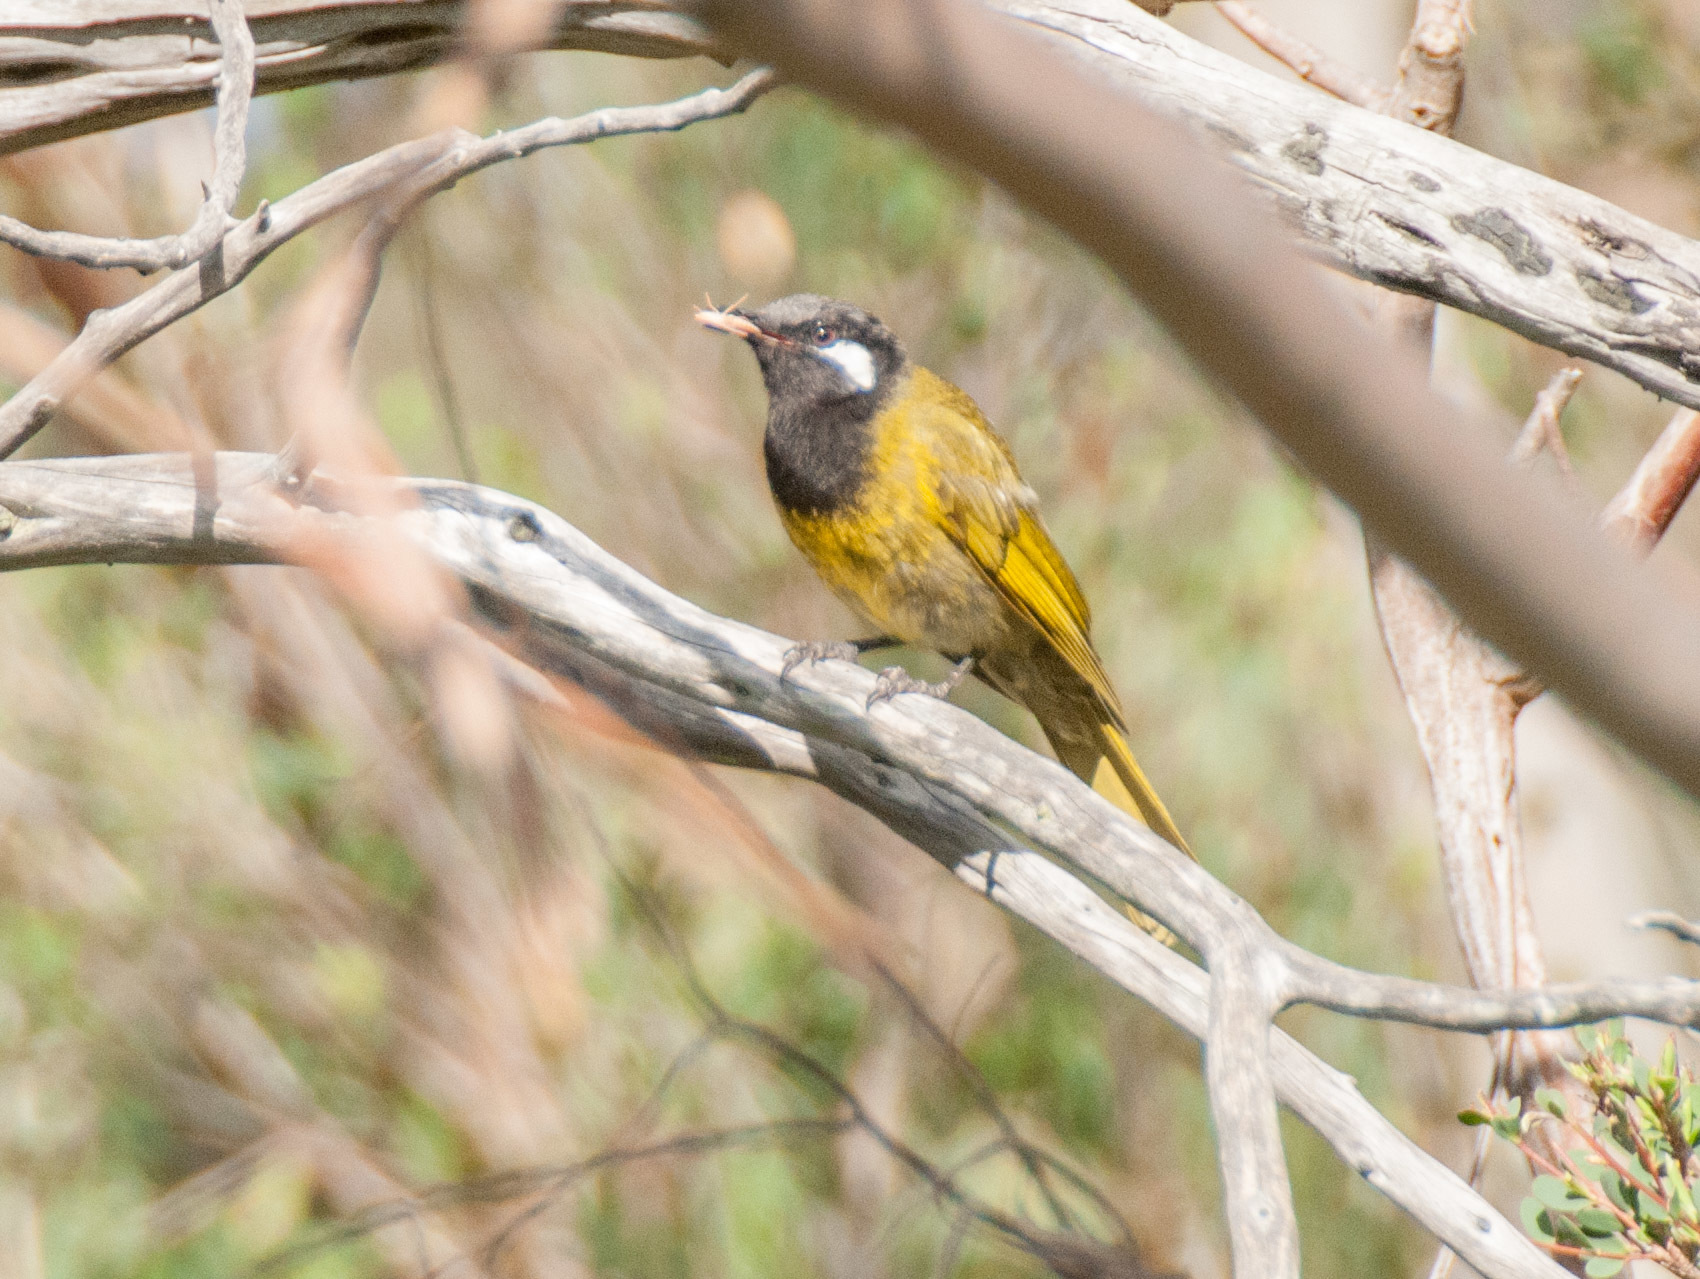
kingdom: Animalia
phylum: Chordata
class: Aves
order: Passeriformes
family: Meliphagidae
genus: Nesoptilotis
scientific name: Nesoptilotis leucotis
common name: White-eared honeyeater
